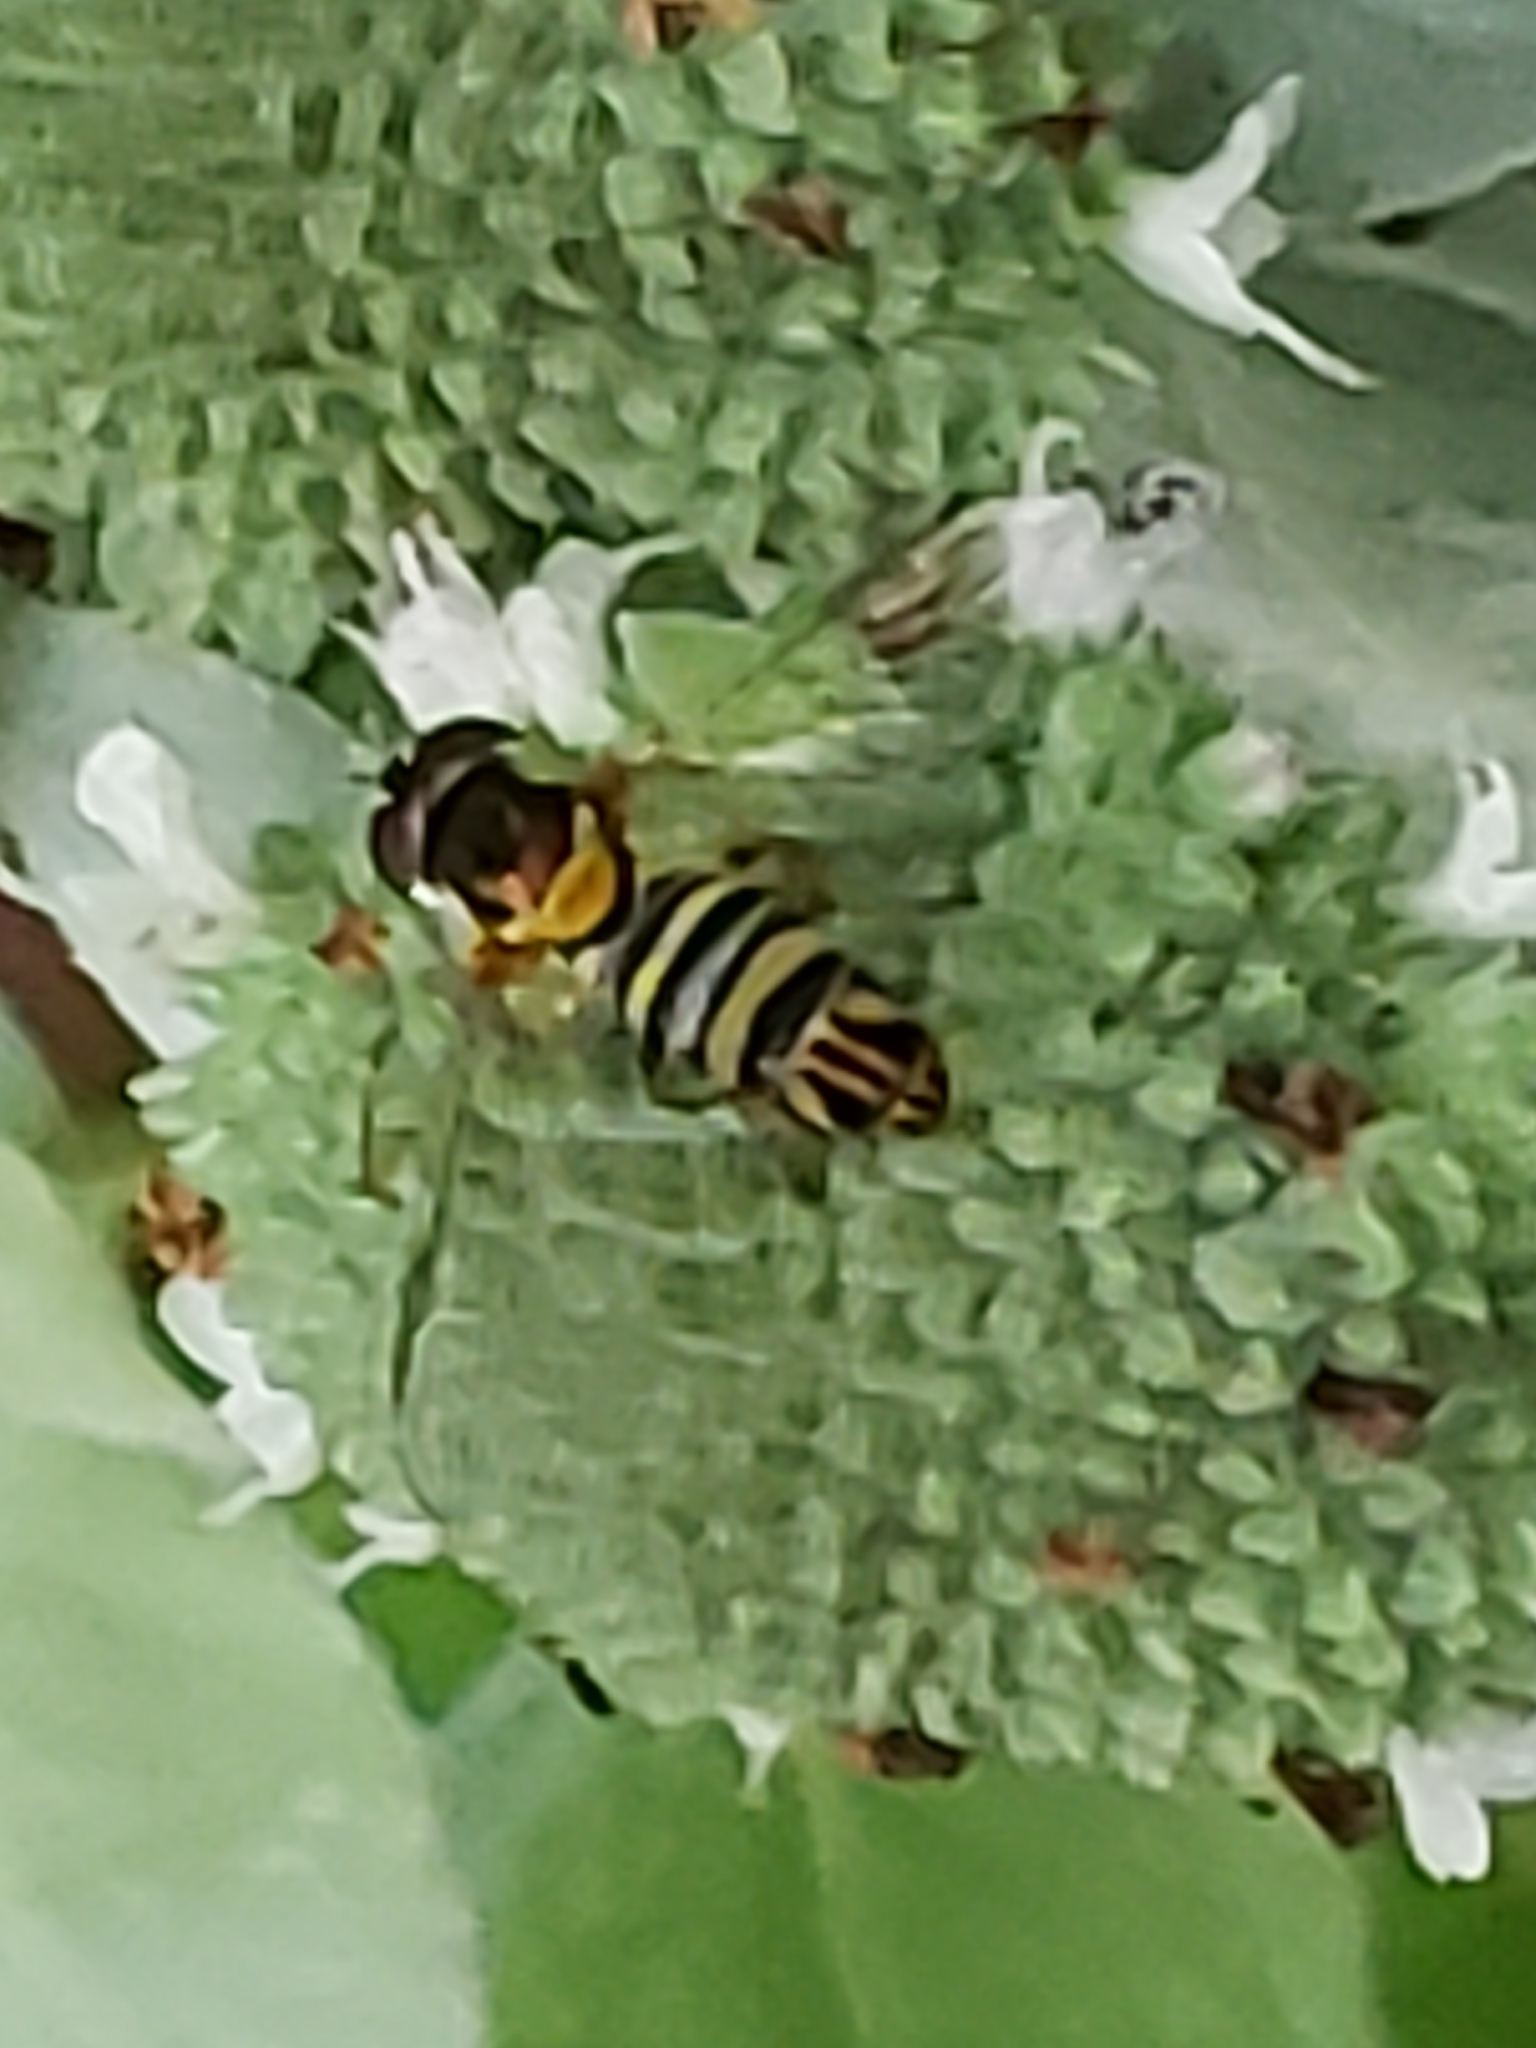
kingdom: Animalia
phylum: Arthropoda
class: Insecta
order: Diptera
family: Syrphidae
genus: Allograpta
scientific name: Allograpta obliqua
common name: Common oblique syrphid
